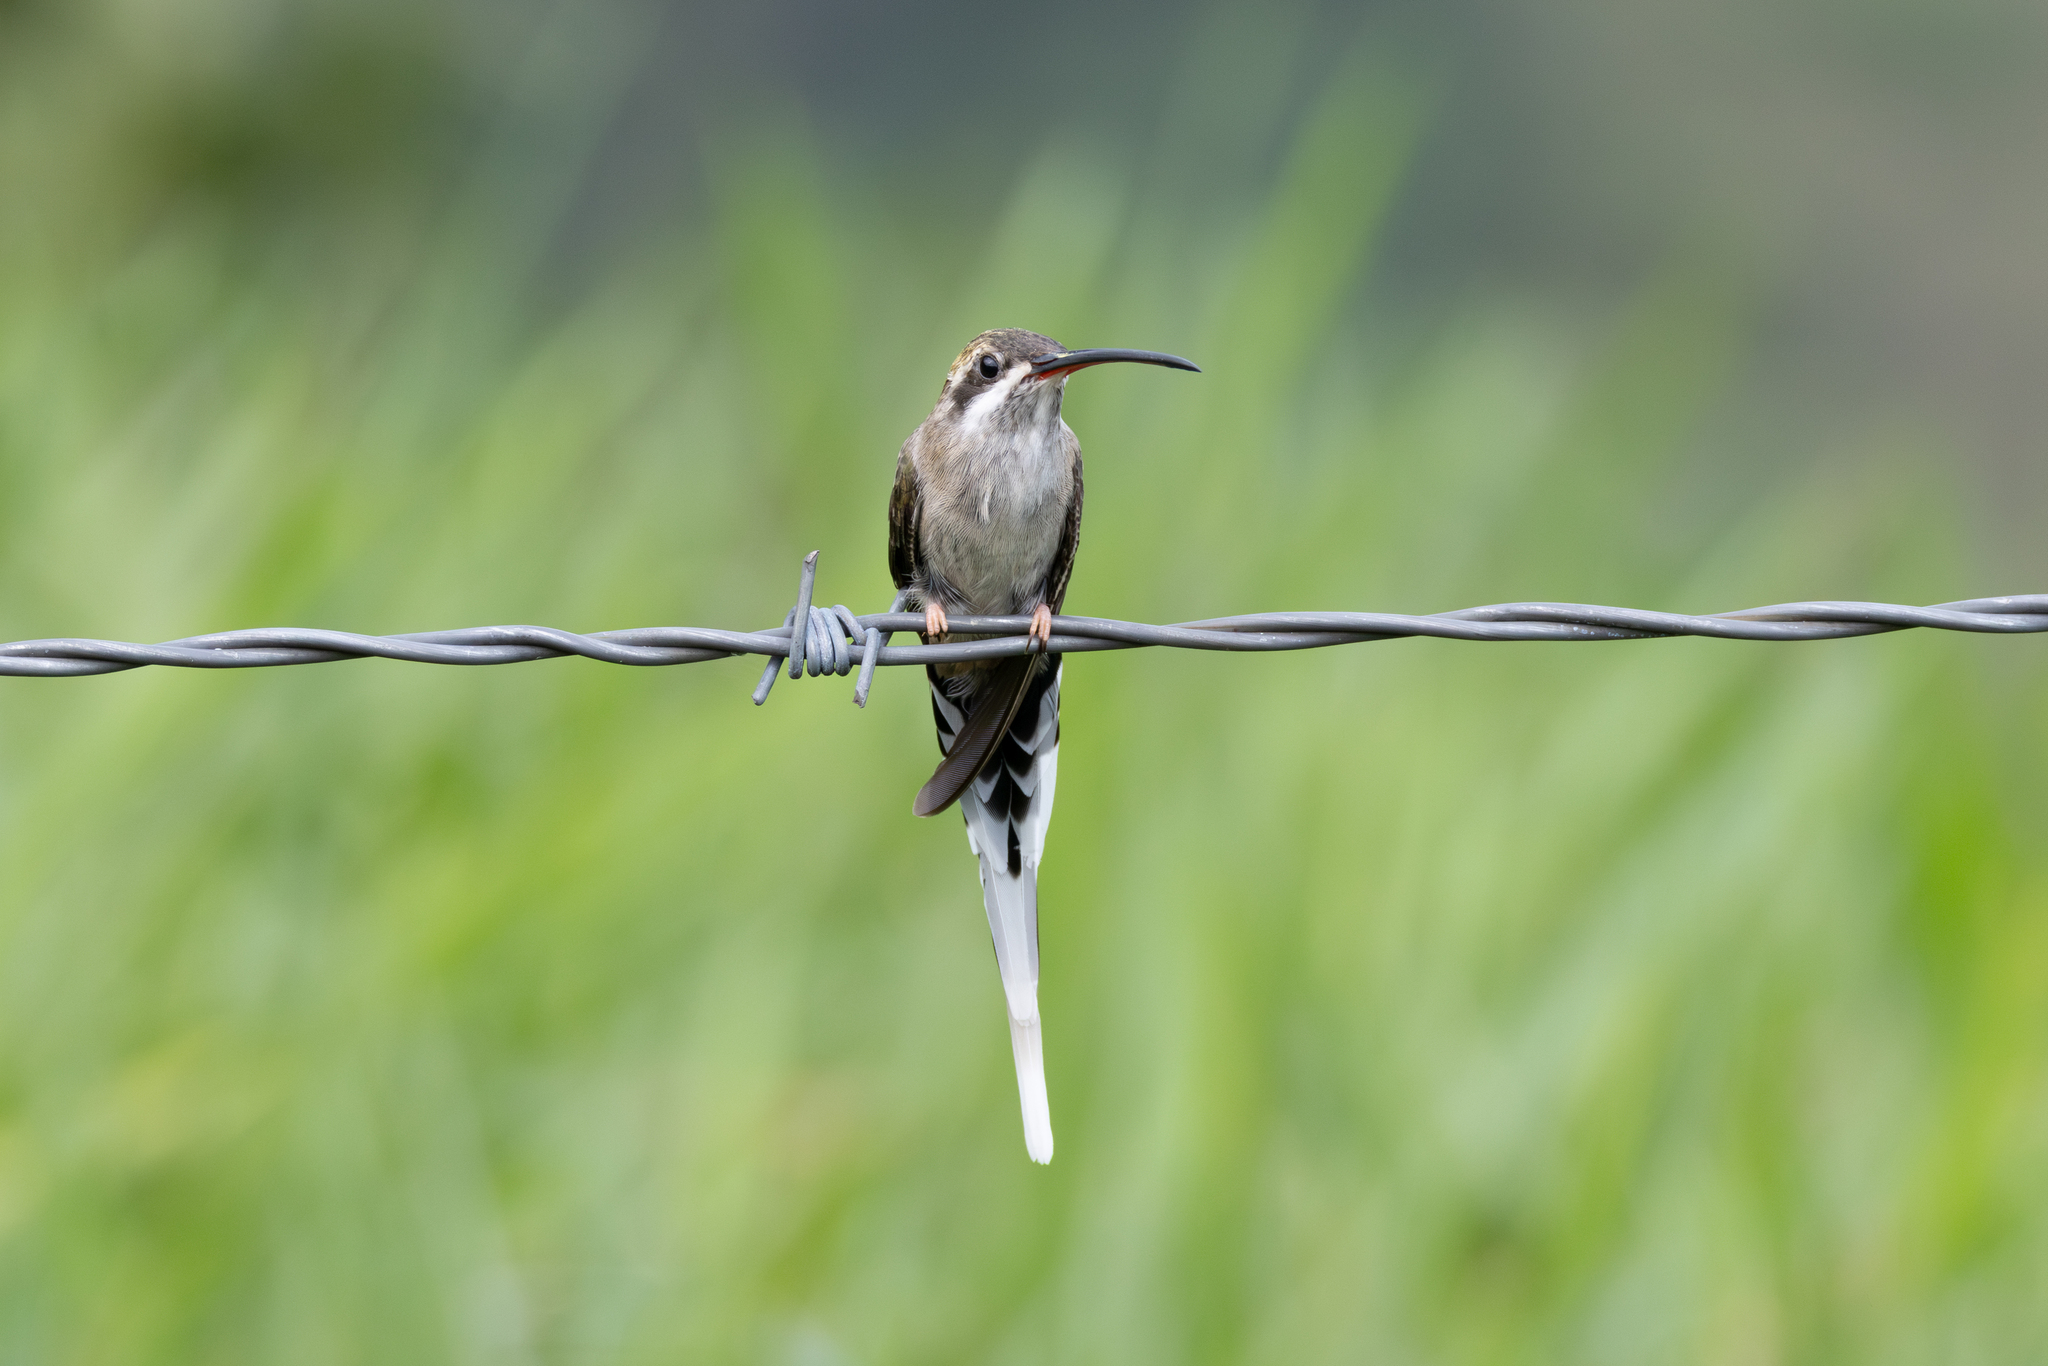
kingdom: Animalia
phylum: Chordata
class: Aves
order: Apodiformes
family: Trochilidae
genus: Phaethornis
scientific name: Phaethornis augusti
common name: Sooty-capped hermit
